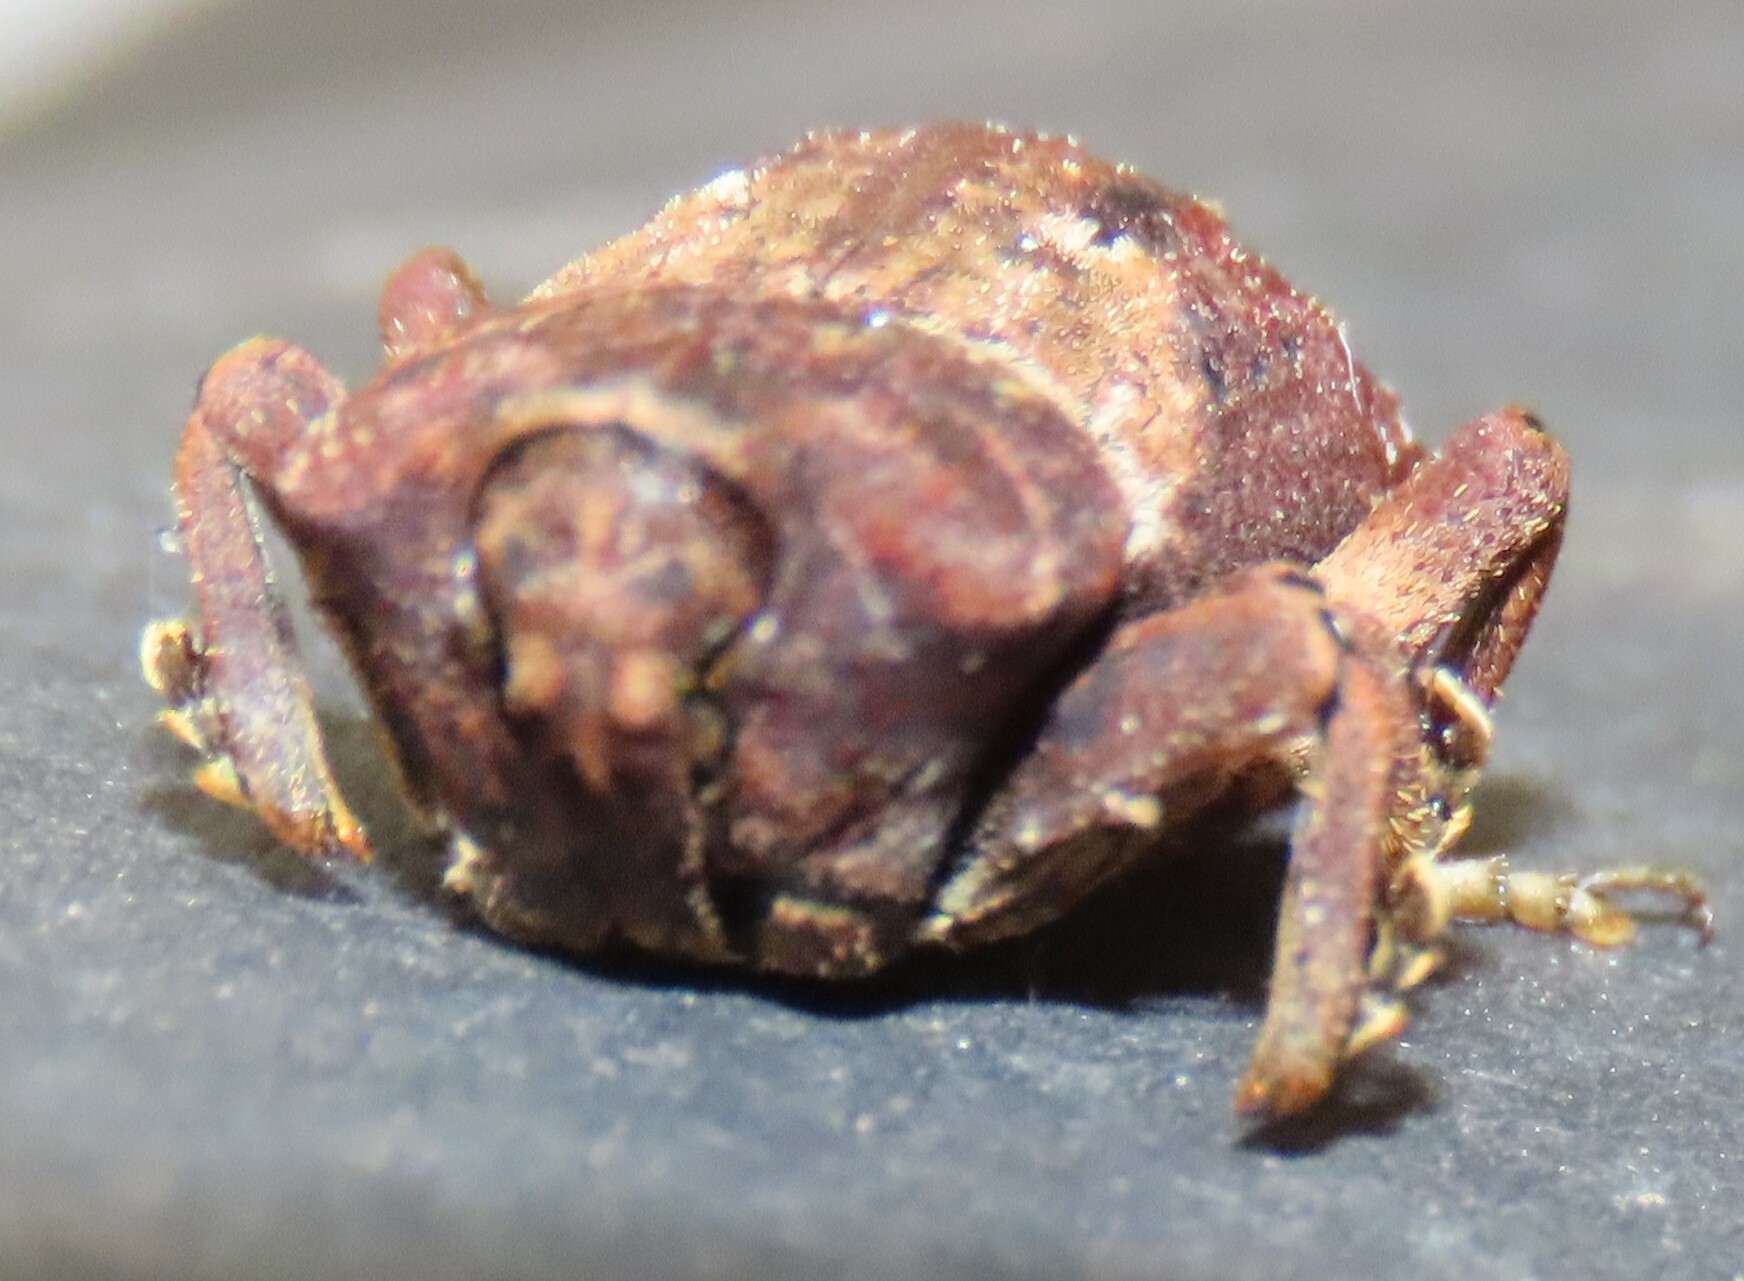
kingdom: Animalia
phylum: Arthropoda
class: Insecta
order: Coleoptera
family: Curculionidae
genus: Ectopsis
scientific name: Ectopsis ferrugalis
